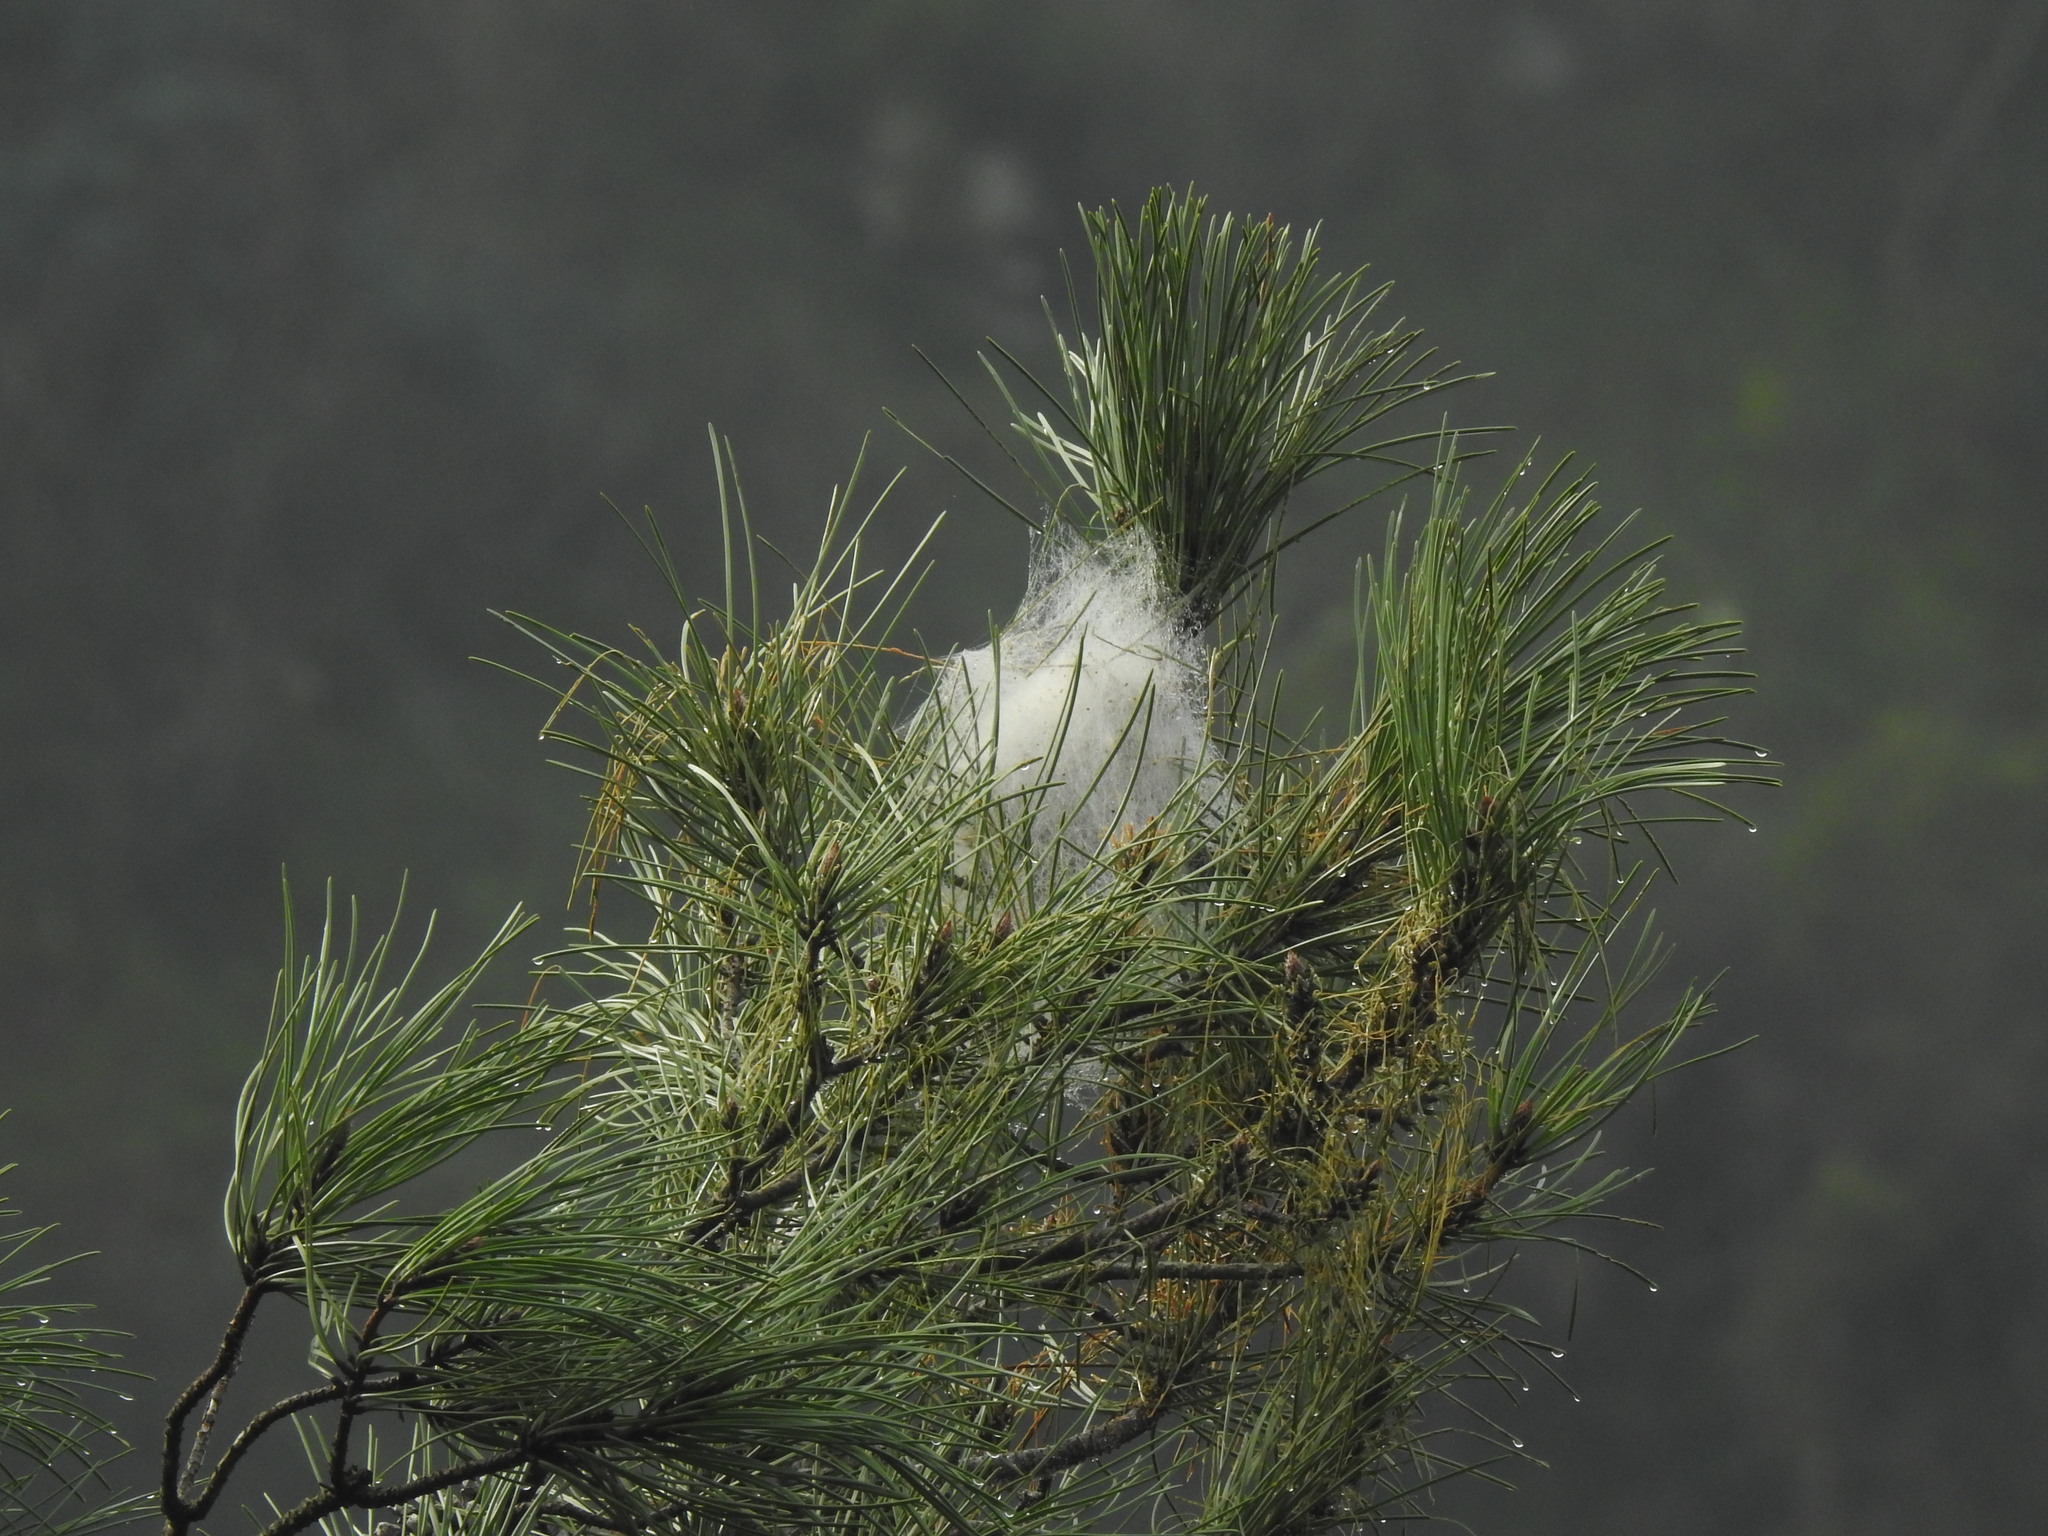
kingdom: Animalia
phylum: Arthropoda
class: Insecta
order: Lepidoptera
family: Notodontidae
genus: Thaumetopoea
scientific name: Thaumetopoea pityocampa
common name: Pine processionary
